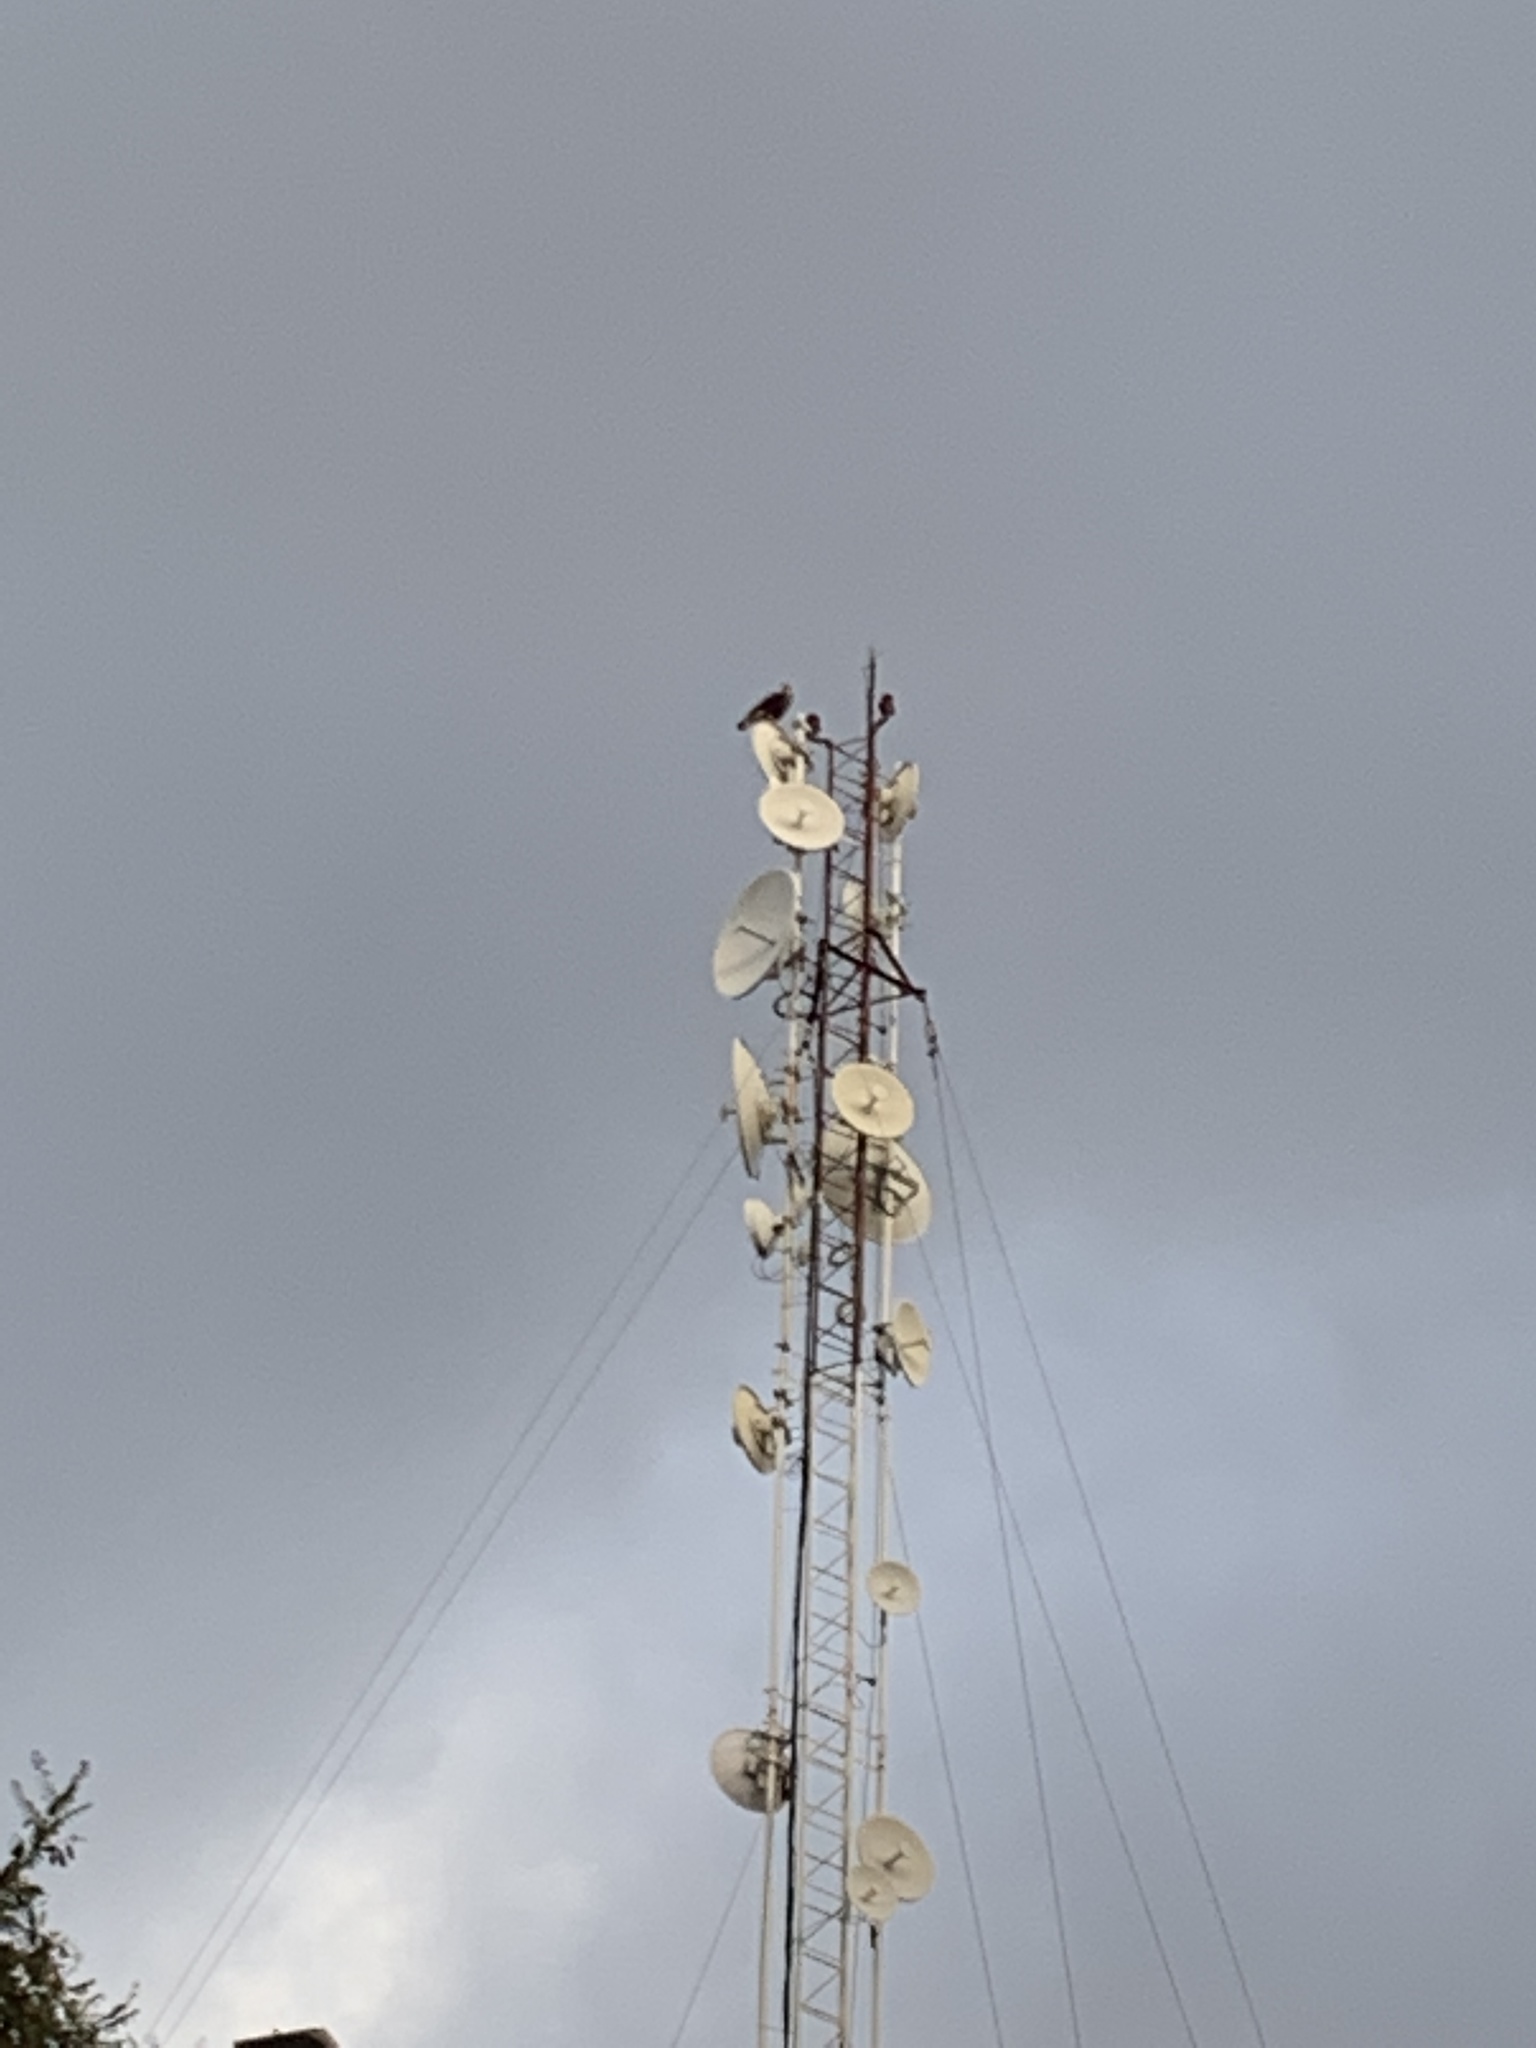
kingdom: Animalia
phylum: Chordata
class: Aves
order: Falconiformes
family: Falconidae
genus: Caracara
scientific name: Caracara plancus
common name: Southern caracara
